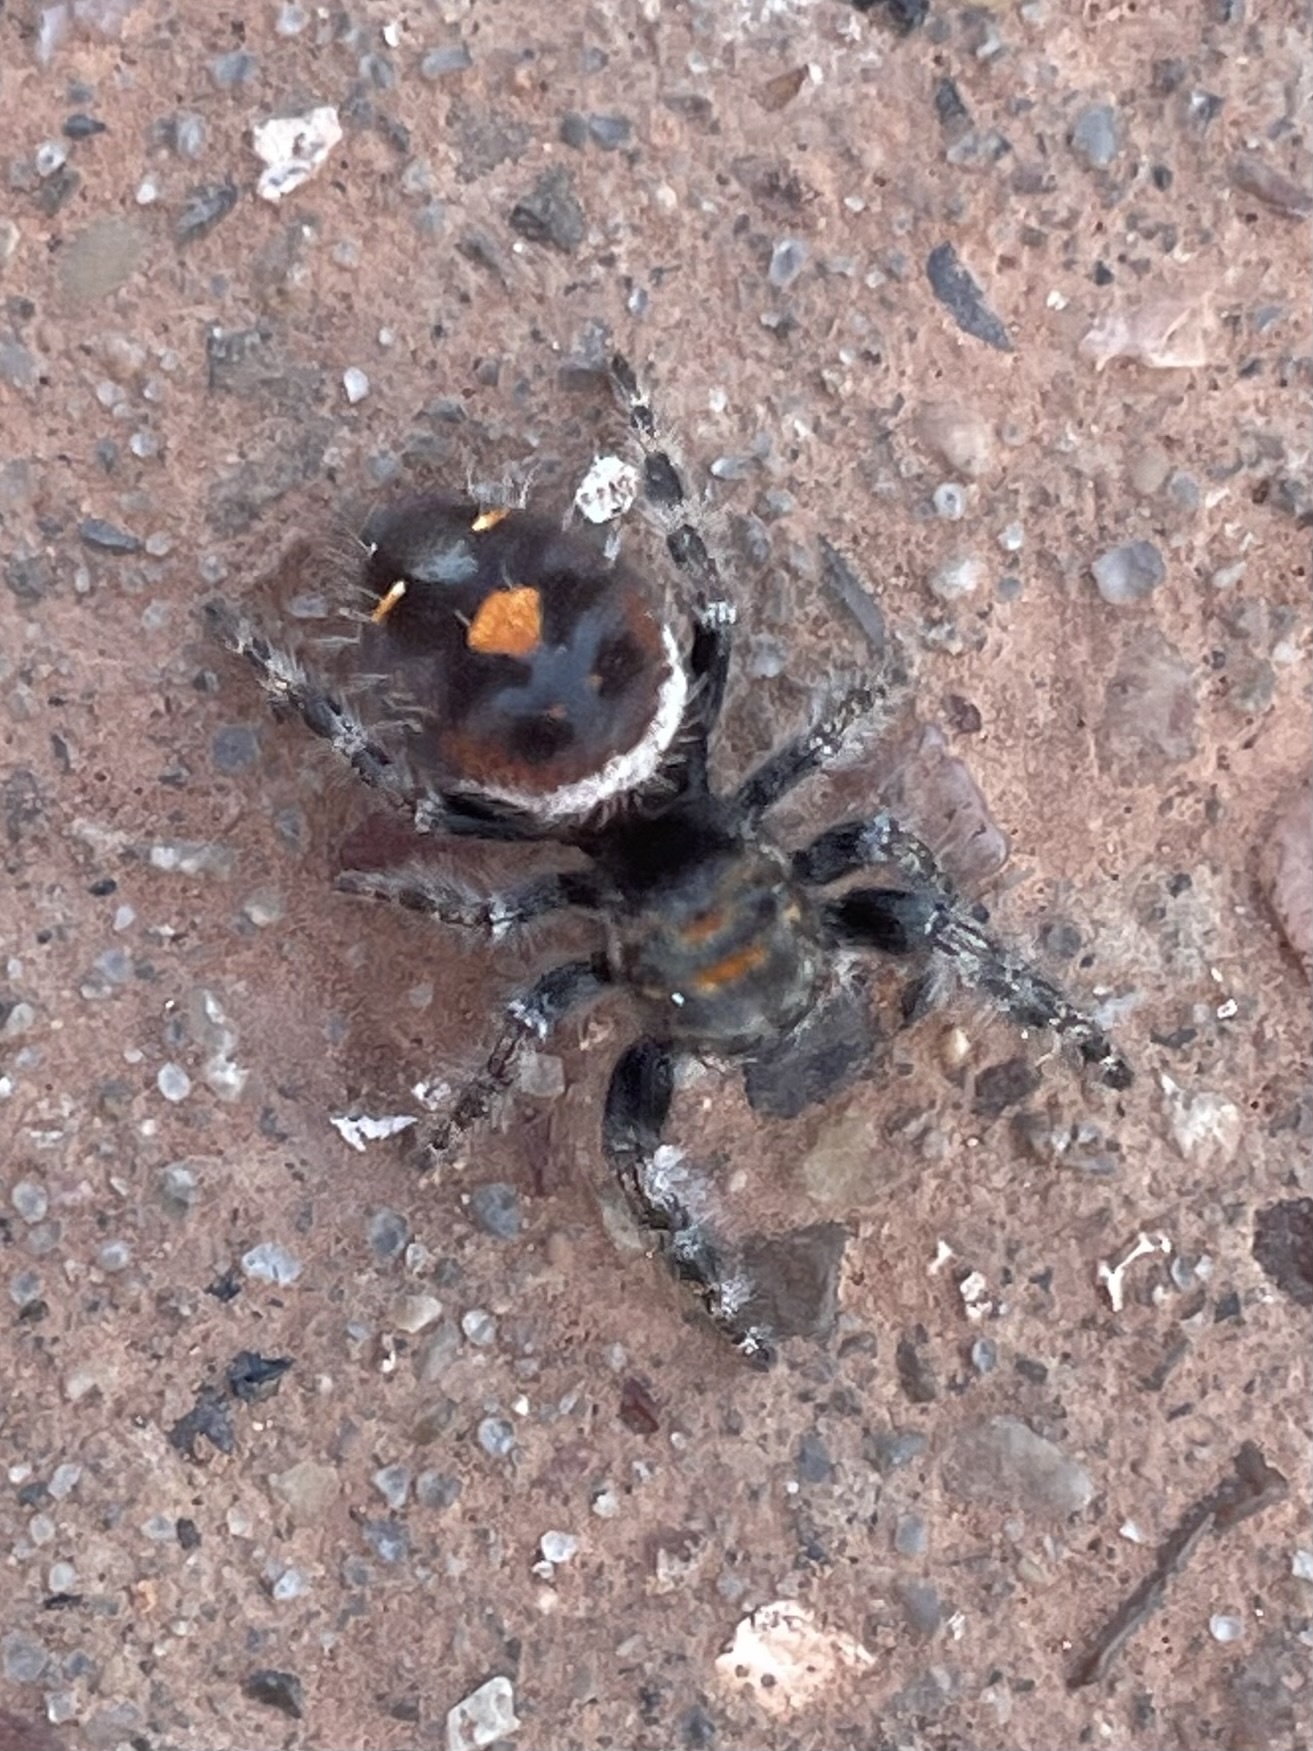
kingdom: Animalia
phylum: Arthropoda
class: Arachnida
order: Araneae
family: Salticidae
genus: Phidippus
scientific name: Phidippus audax
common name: Bold jumper
